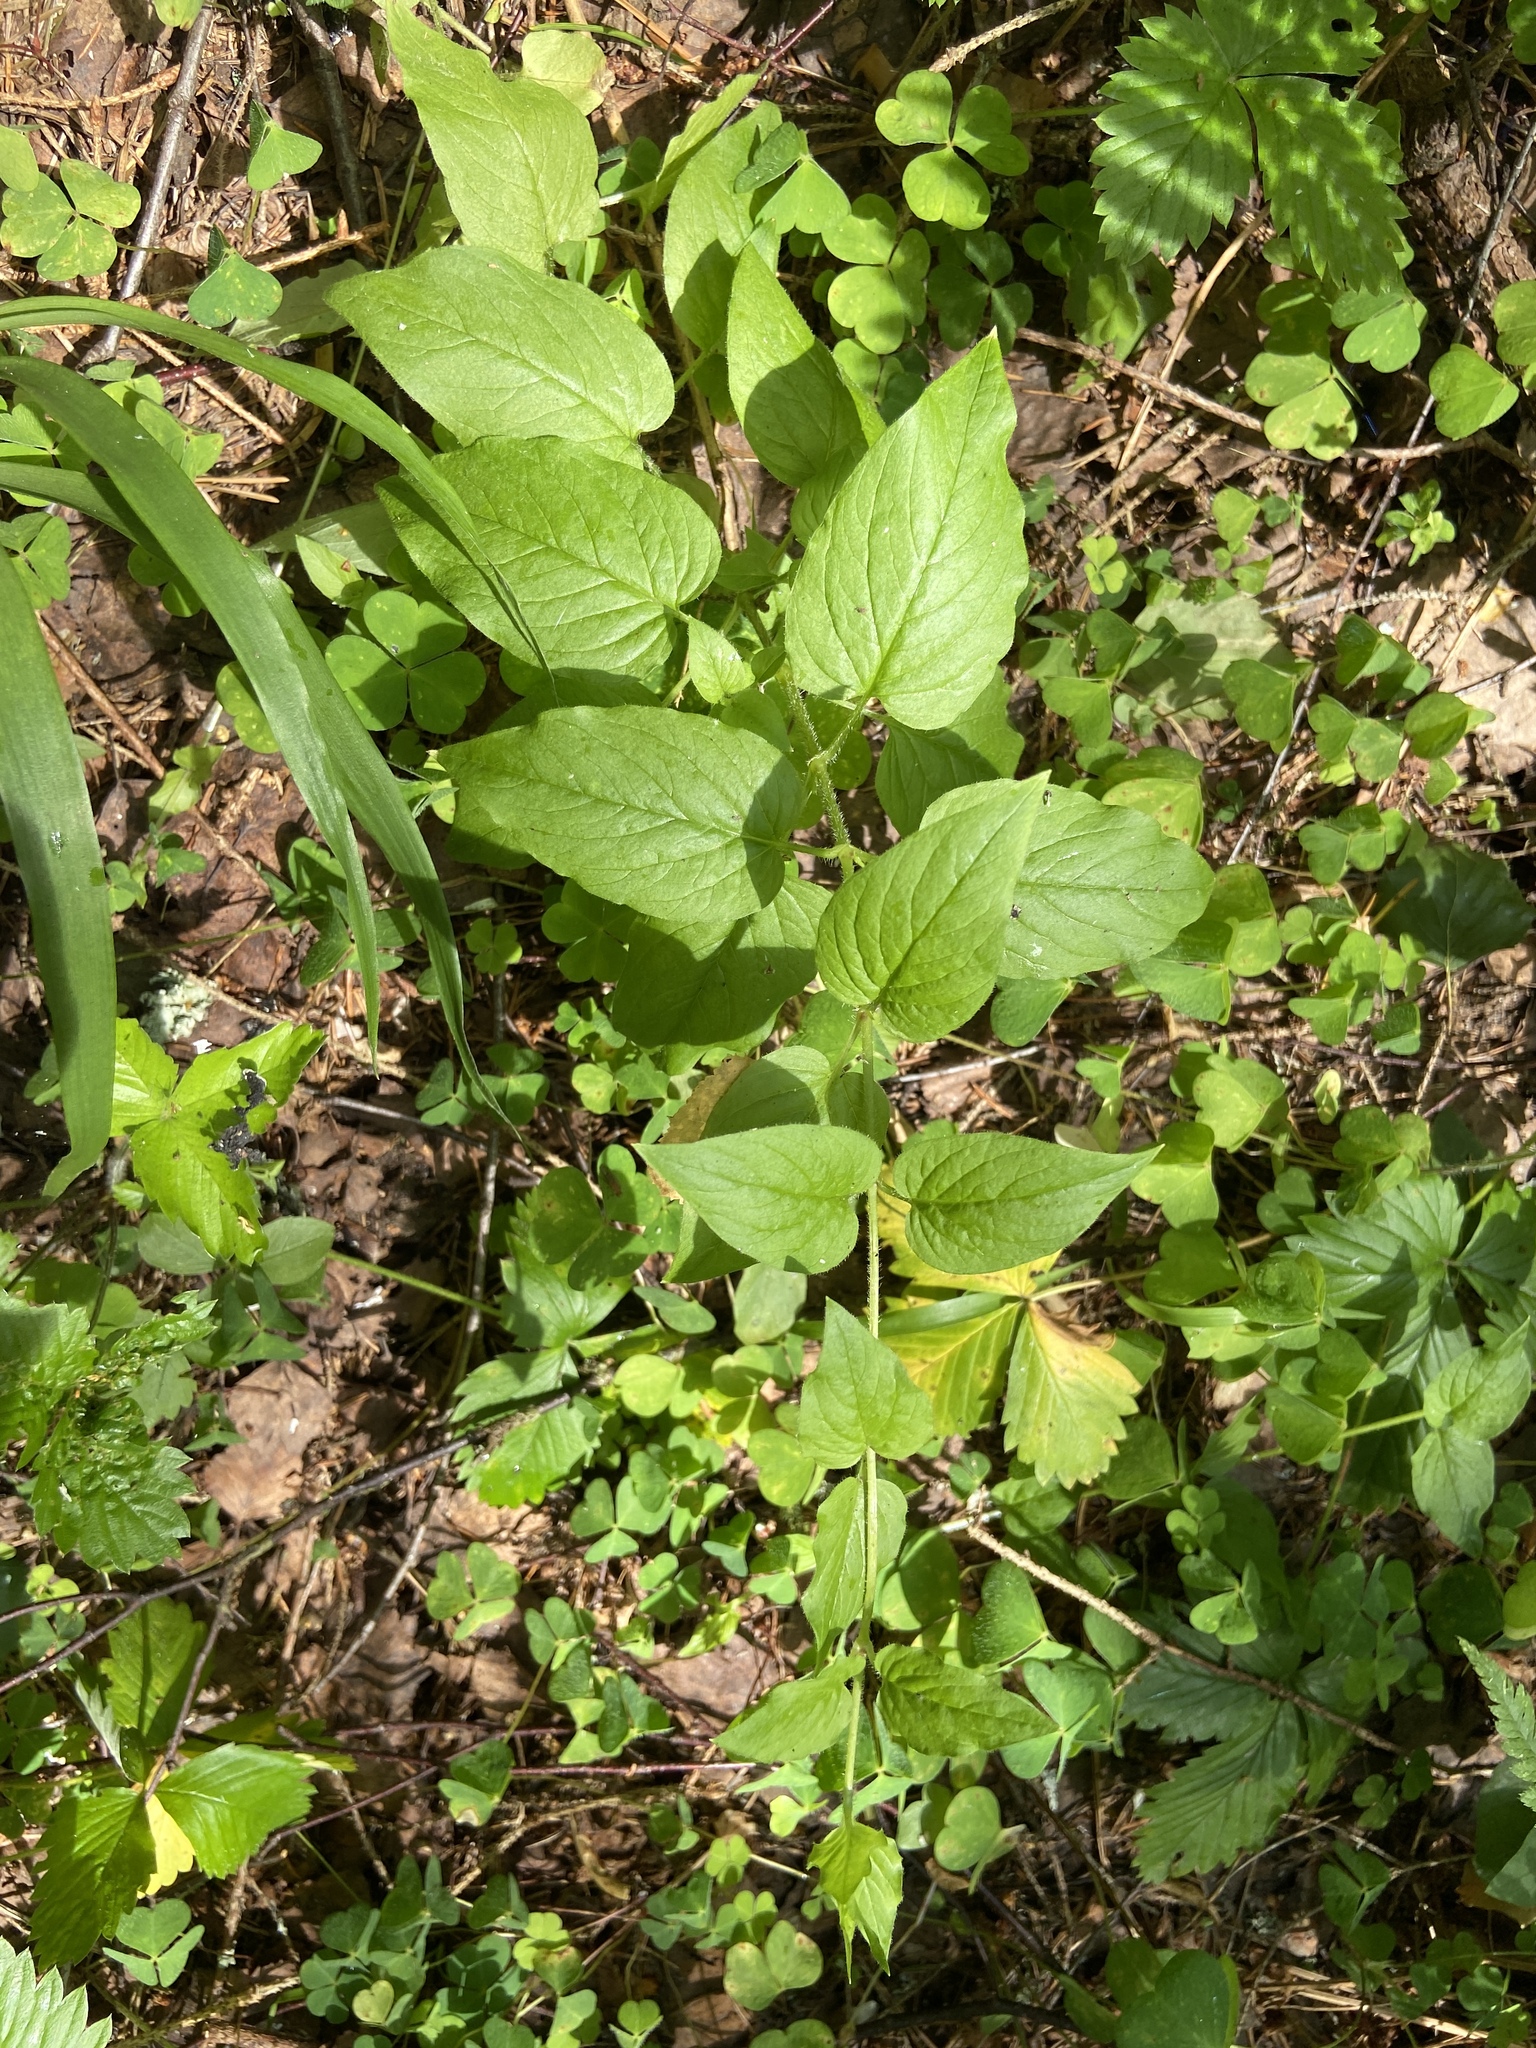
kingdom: Plantae
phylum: Tracheophyta
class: Magnoliopsida
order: Caryophyllales
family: Caryophyllaceae
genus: Stellaria
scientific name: Stellaria nemorum
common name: Wood stitchwort
